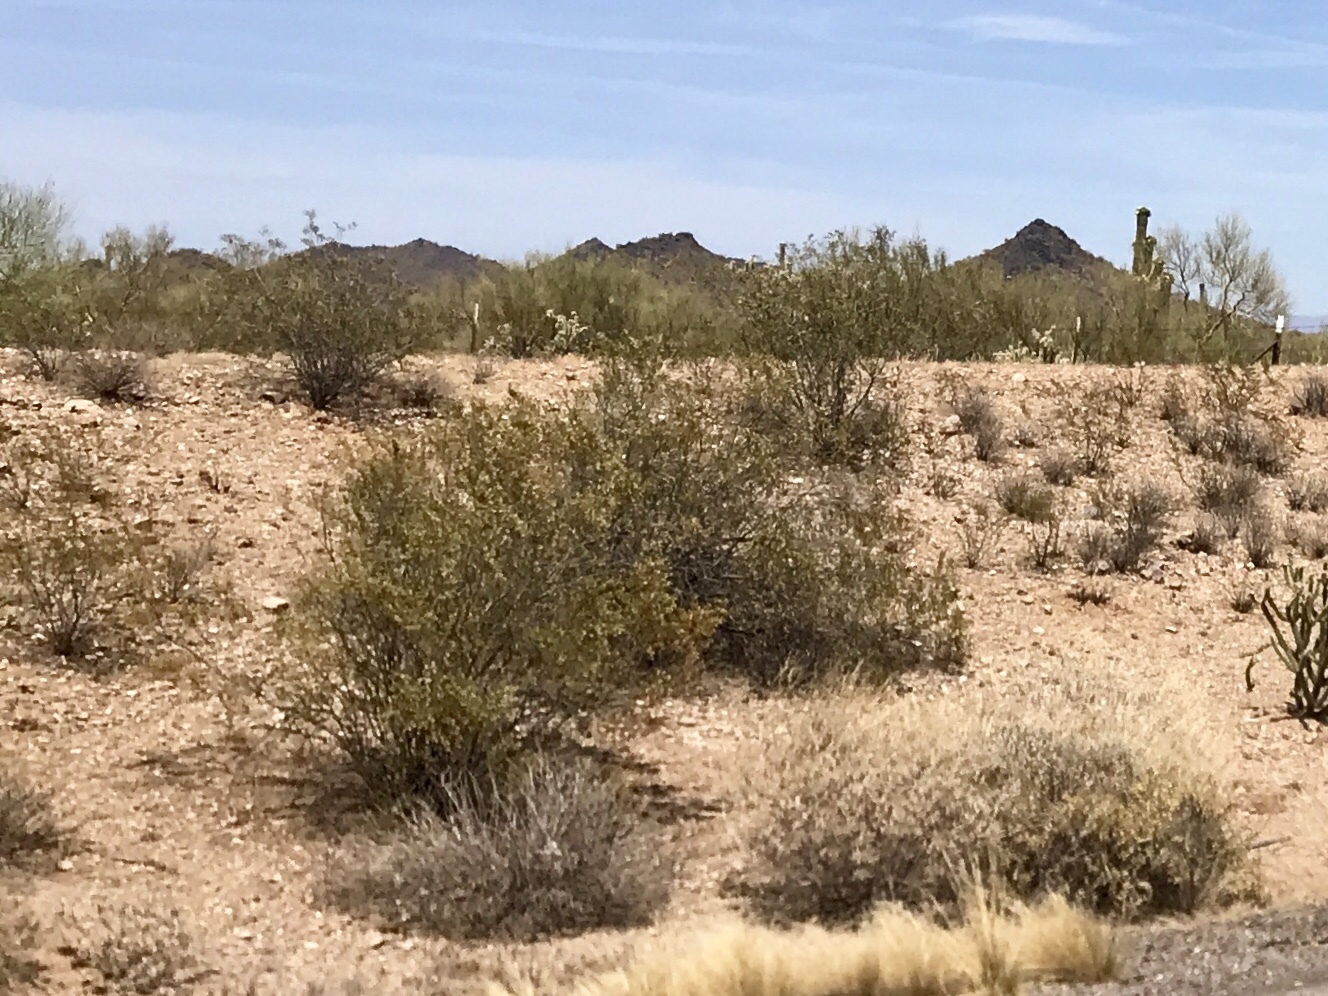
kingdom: Plantae
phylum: Tracheophyta
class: Magnoliopsida
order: Zygophyllales
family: Zygophyllaceae
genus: Larrea
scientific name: Larrea tridentata
